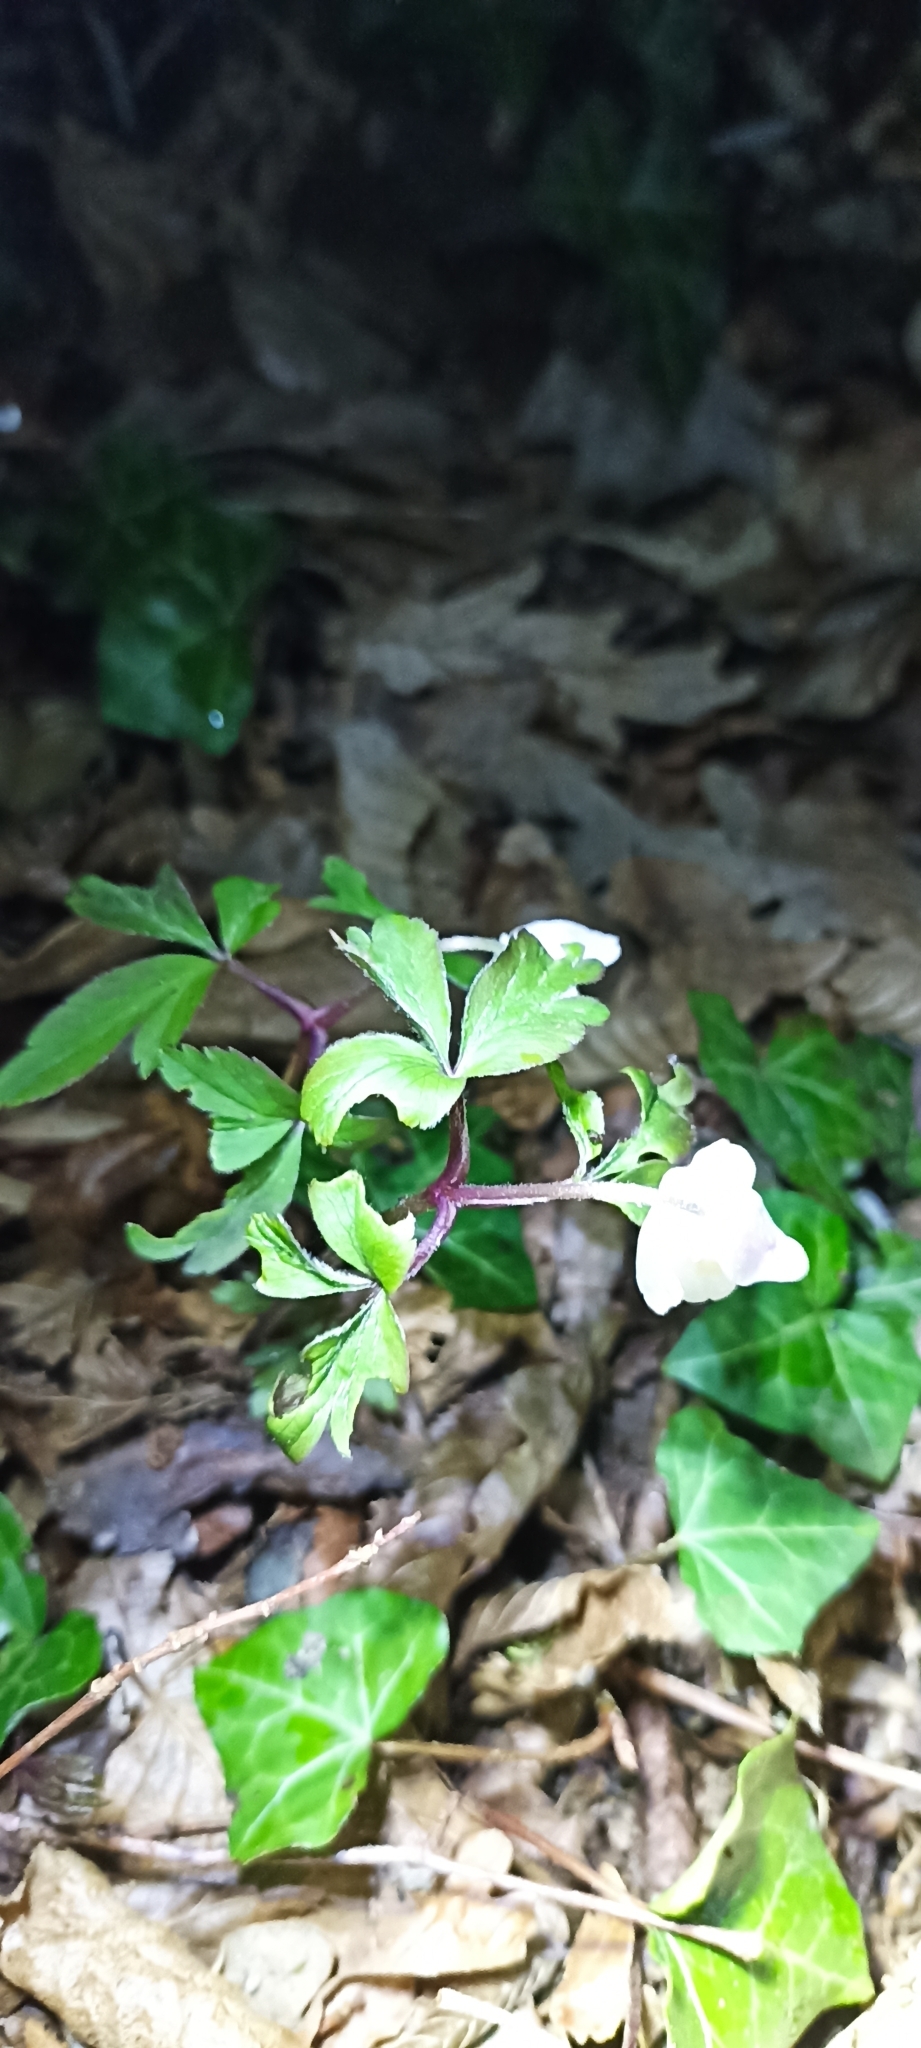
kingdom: Plantae
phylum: Tracheophyta
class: Magnoliopsida
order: Ranunculales
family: Ranunculaceae
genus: Anemone
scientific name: Anemone nemorosa
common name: Wood anemone
